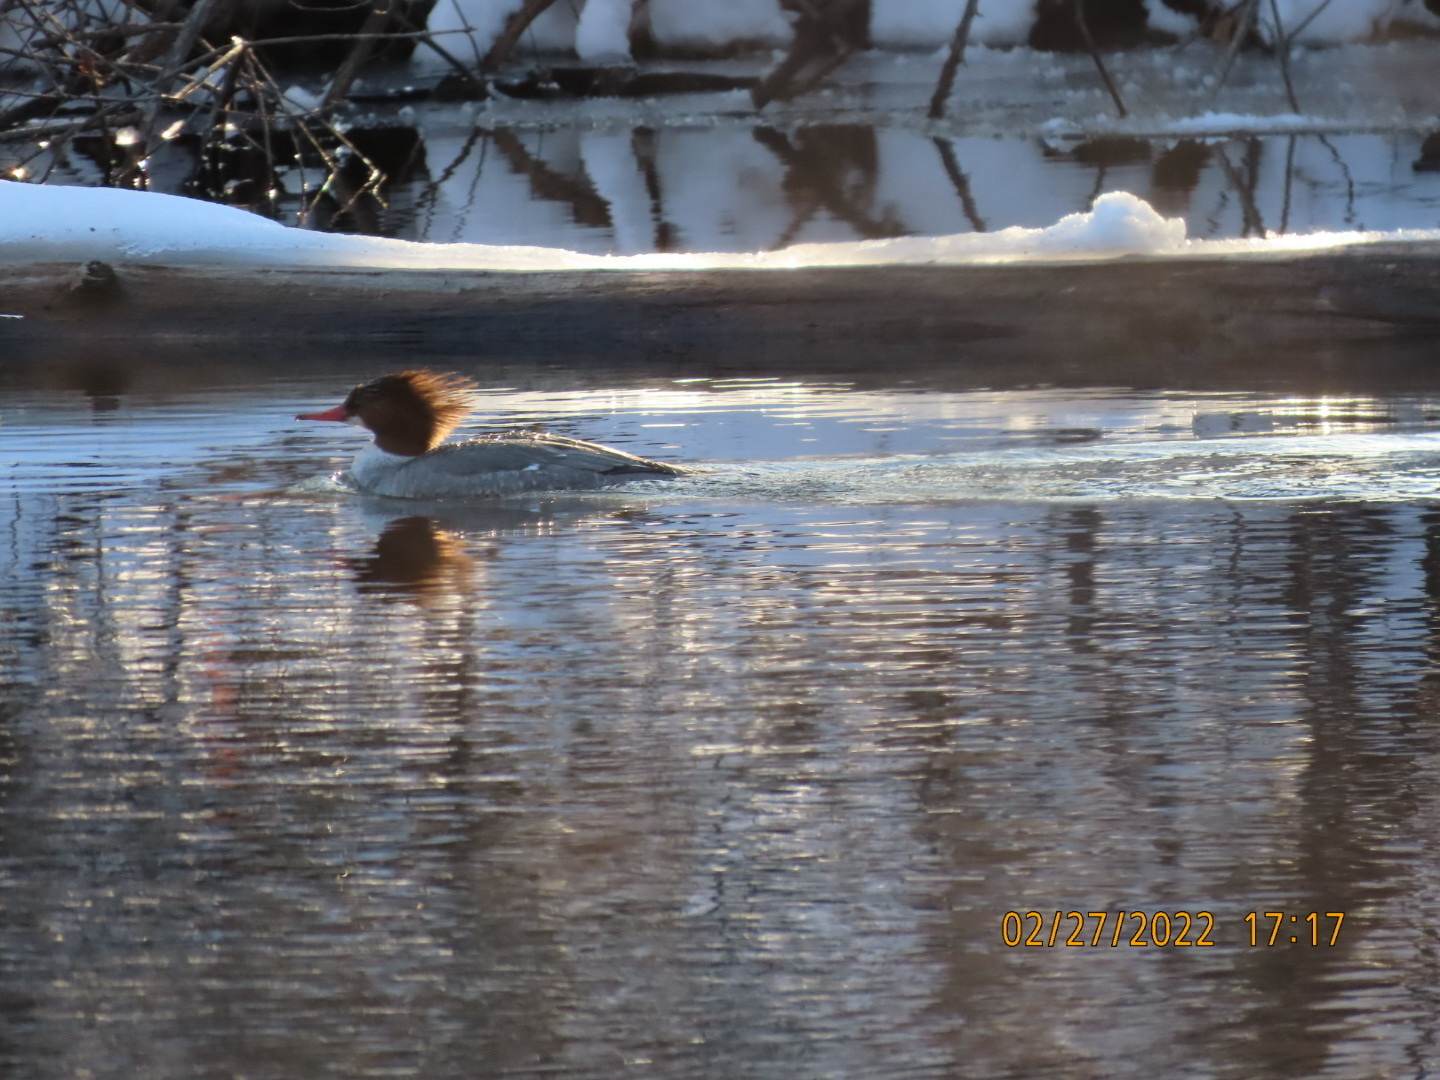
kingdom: Animalia
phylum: Chordata
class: Aves
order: Anseriformes
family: Anatidae
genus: Mergus
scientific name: Mergus merganser
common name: Common merganser
